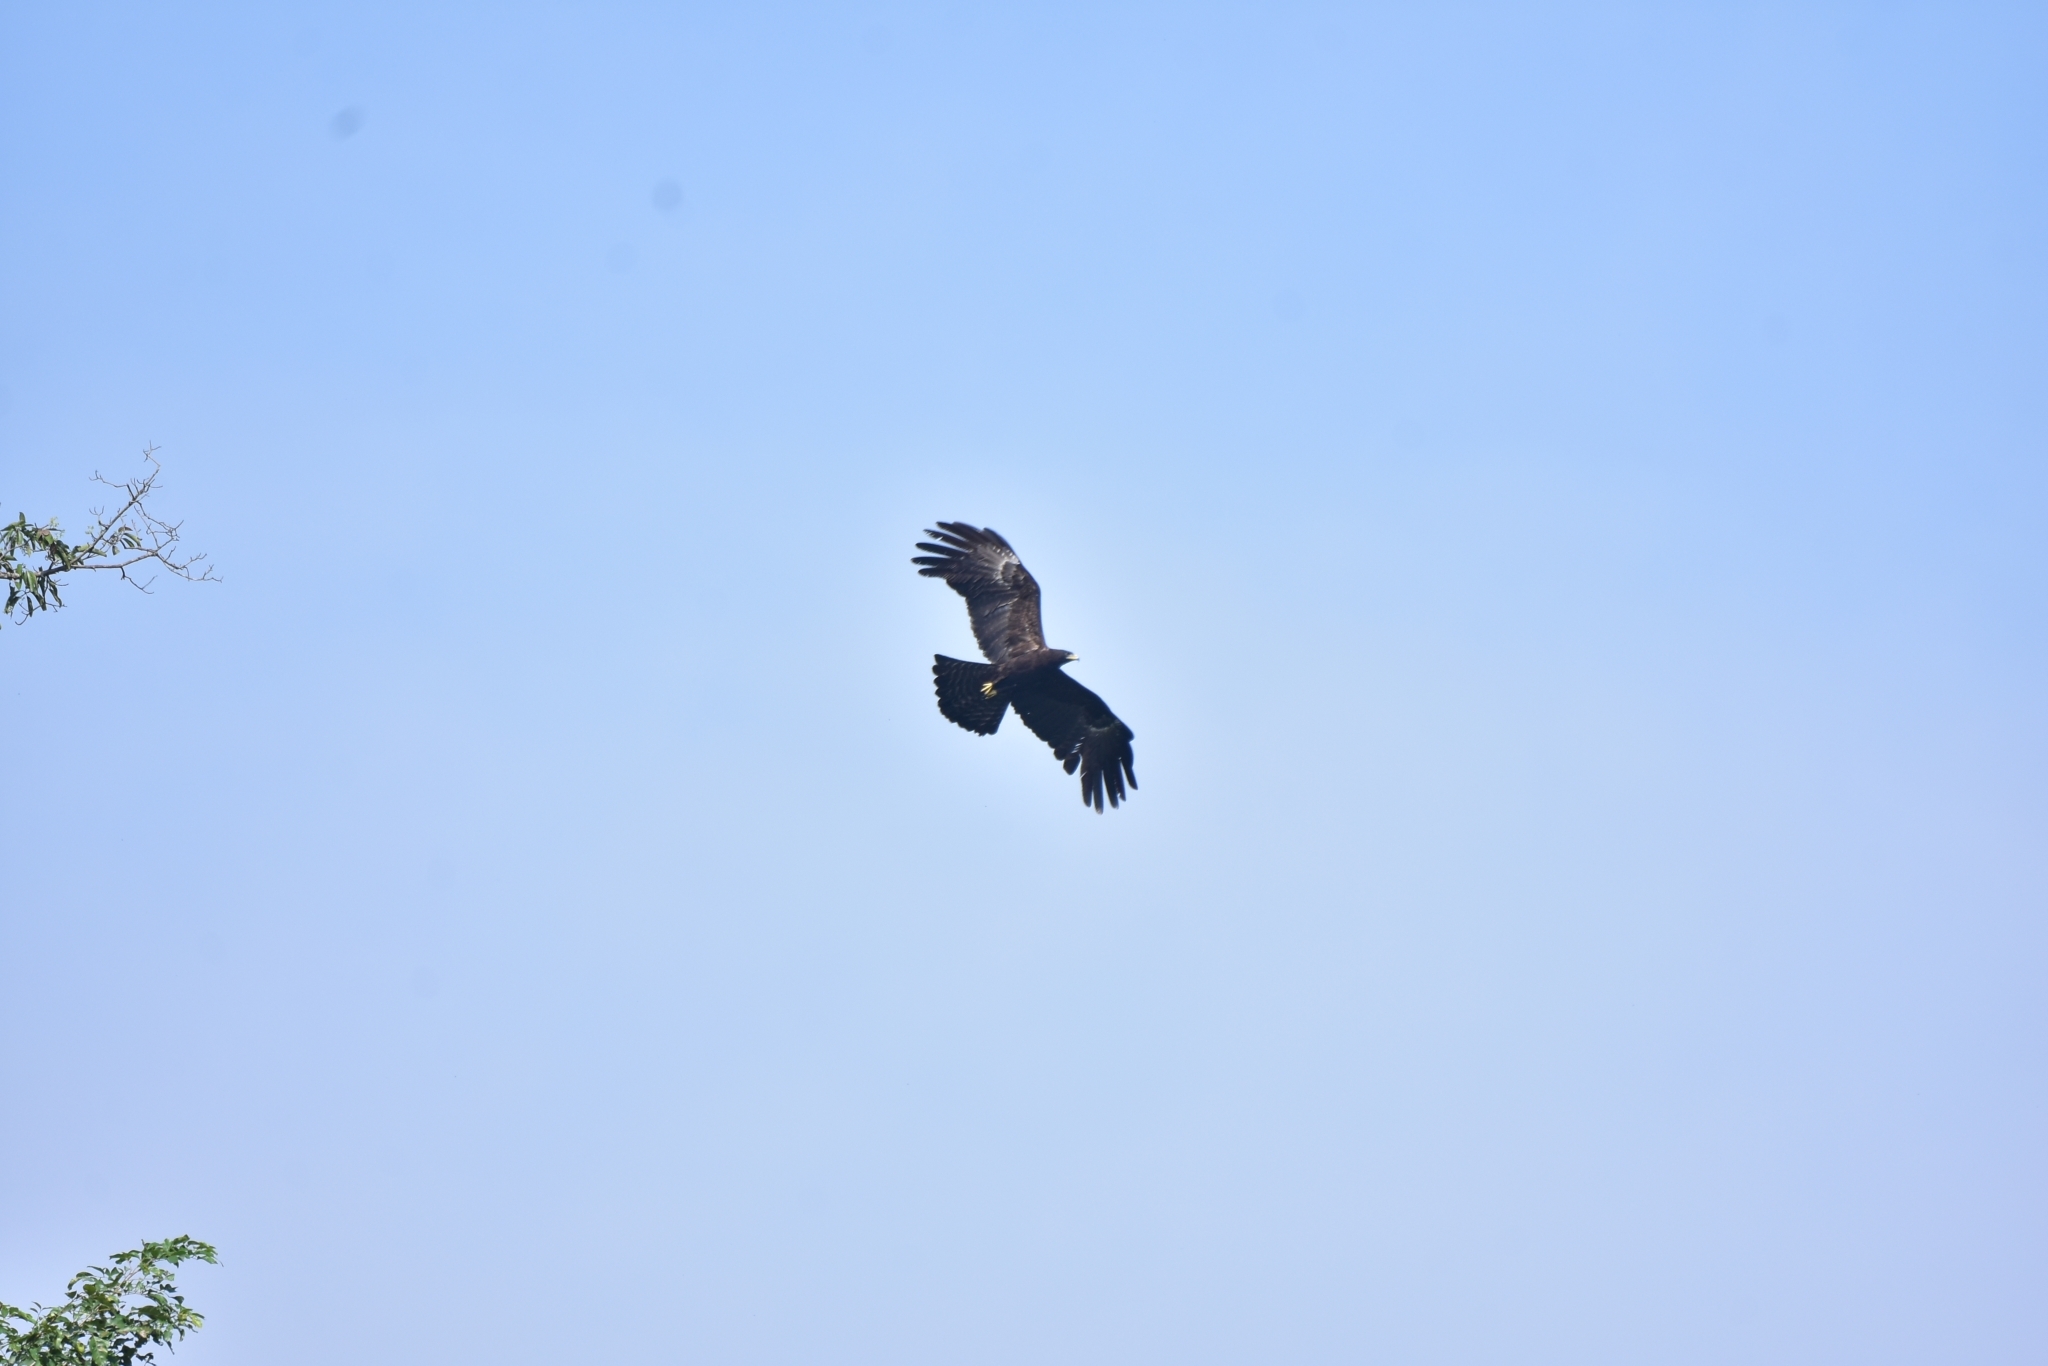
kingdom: Animalia
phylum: Chordata
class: Aves
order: Accipitriformes
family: Accipitridae
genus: Ictinaetus
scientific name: Ictinaetus malayensis
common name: Black eagle
